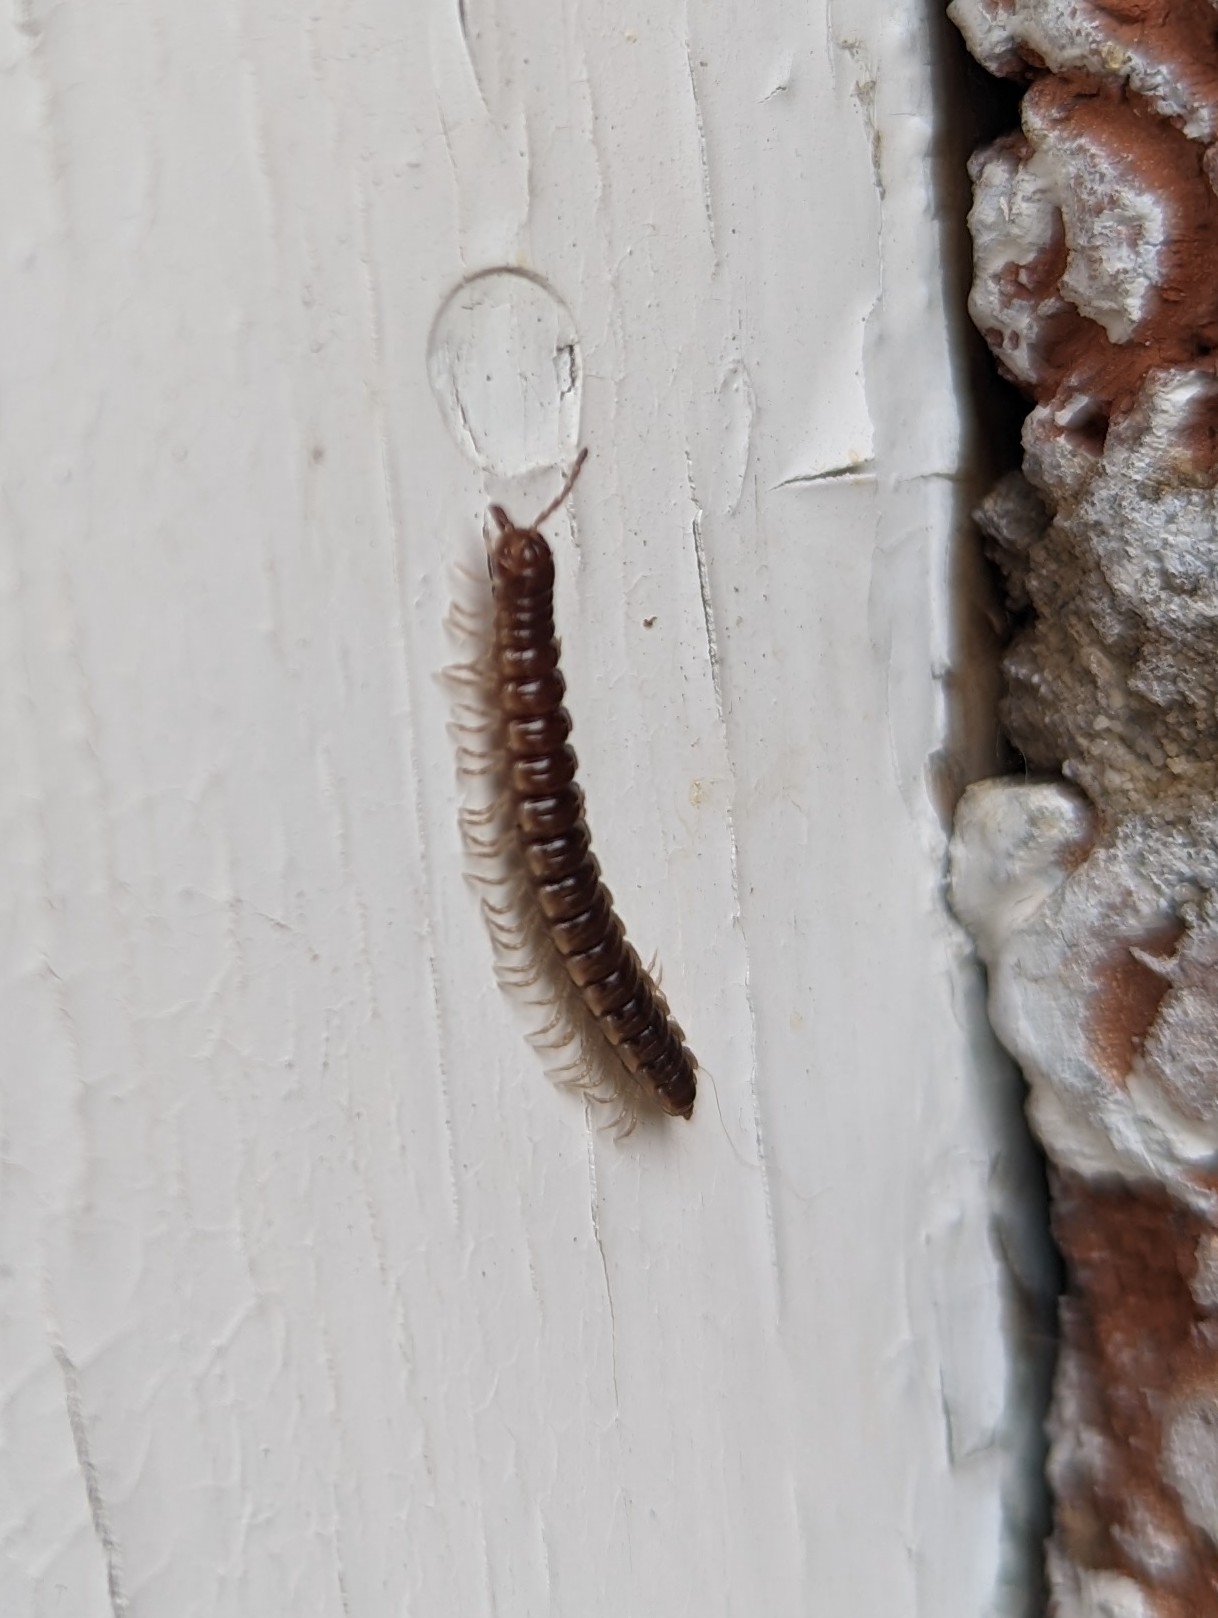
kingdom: Animalia
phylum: Arthropoda
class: Diplopoda
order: Polydesmida
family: Paradoxosomatidae
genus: Oxidus
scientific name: Oxidus gracilis
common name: Greenhouse millipede
